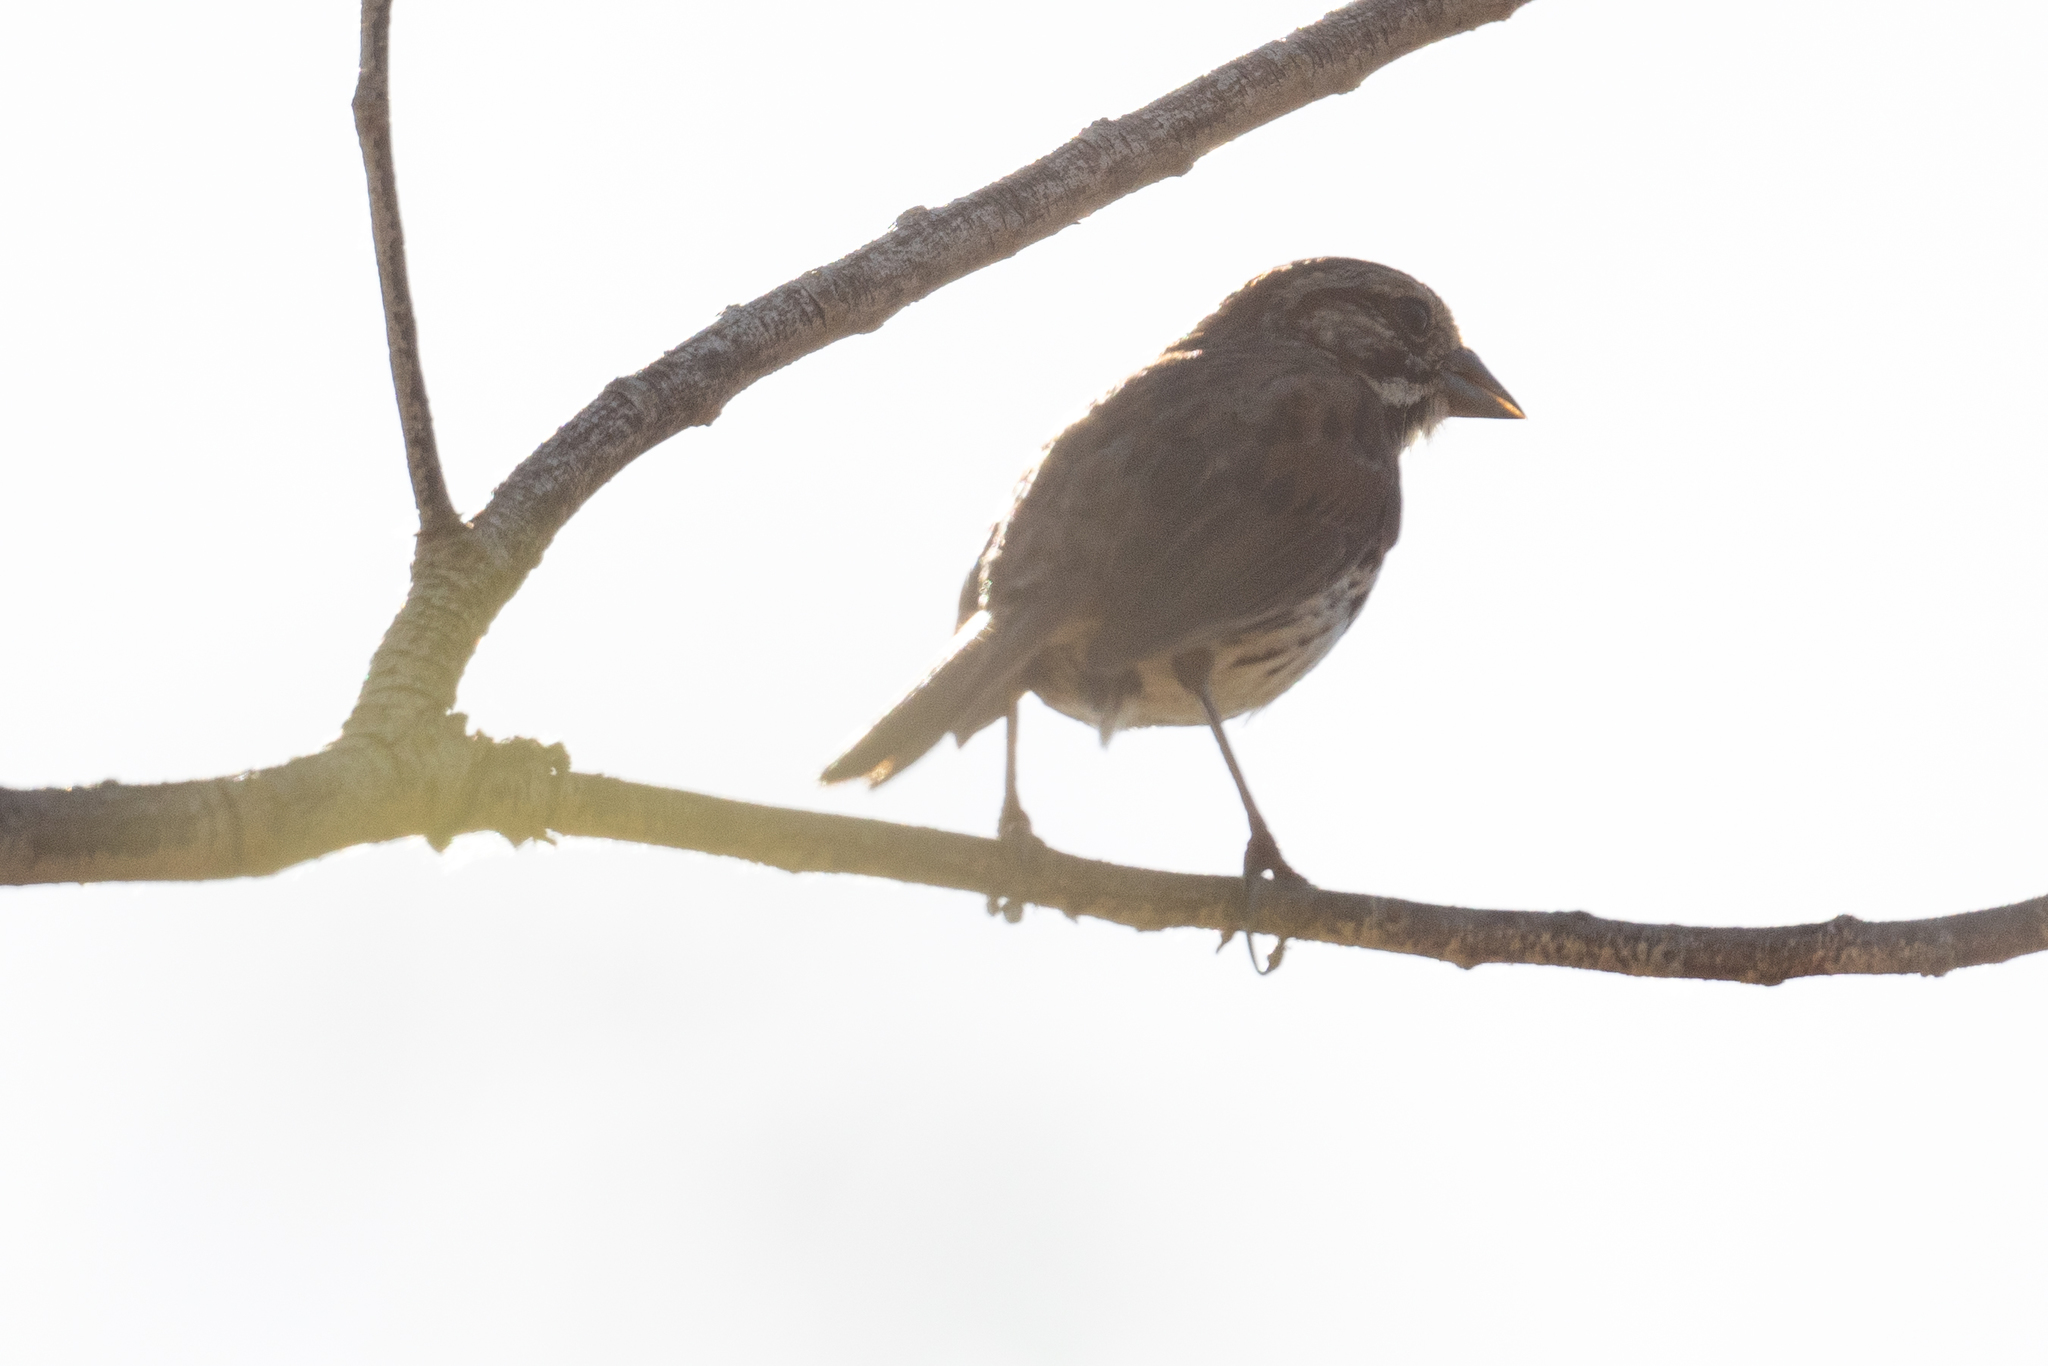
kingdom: Animalia
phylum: Chordata
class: Aves
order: Passeriformes
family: Passerellidae
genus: Melospiza
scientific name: Melospiza melodia
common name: Song sparrow
